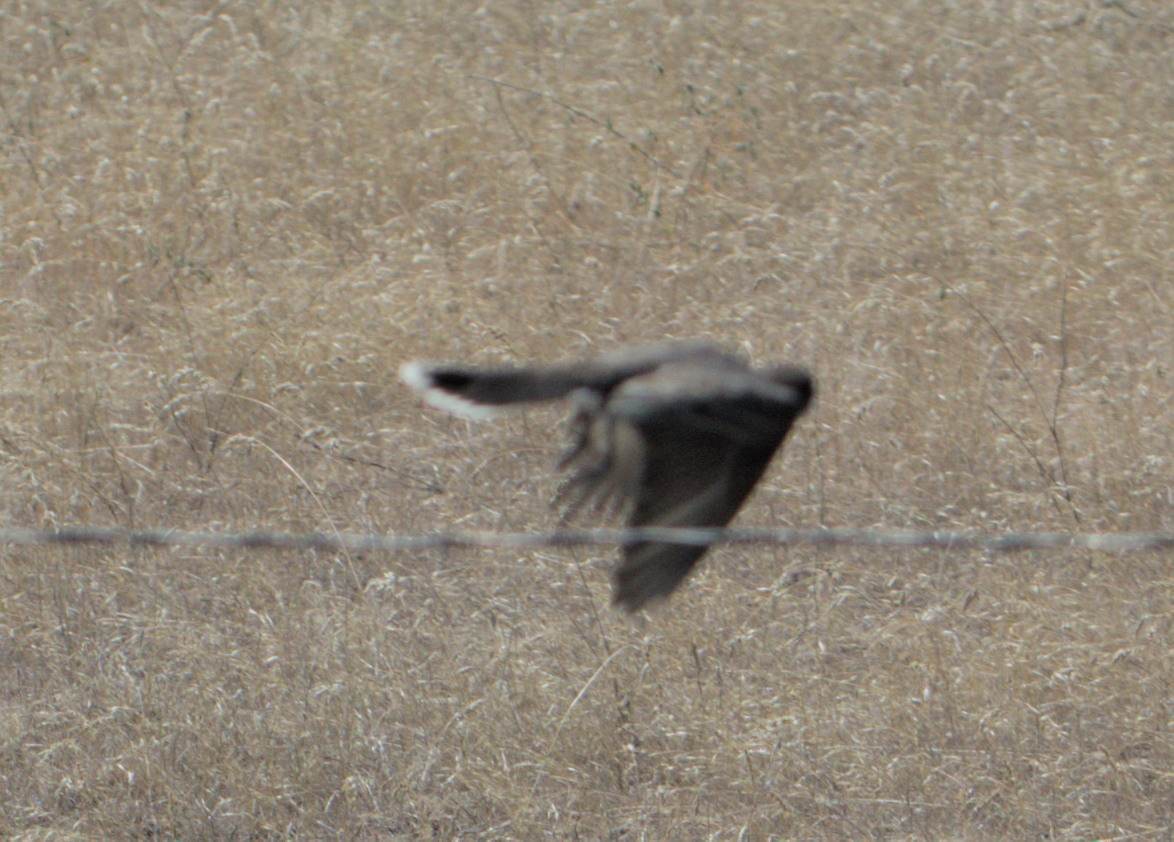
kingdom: Animalia
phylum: Chordata
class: Aves
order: Passeriformes
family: Tyrannidae
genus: Tyrannus
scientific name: Tyrannus tyrannus
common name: Eastern kingbird
